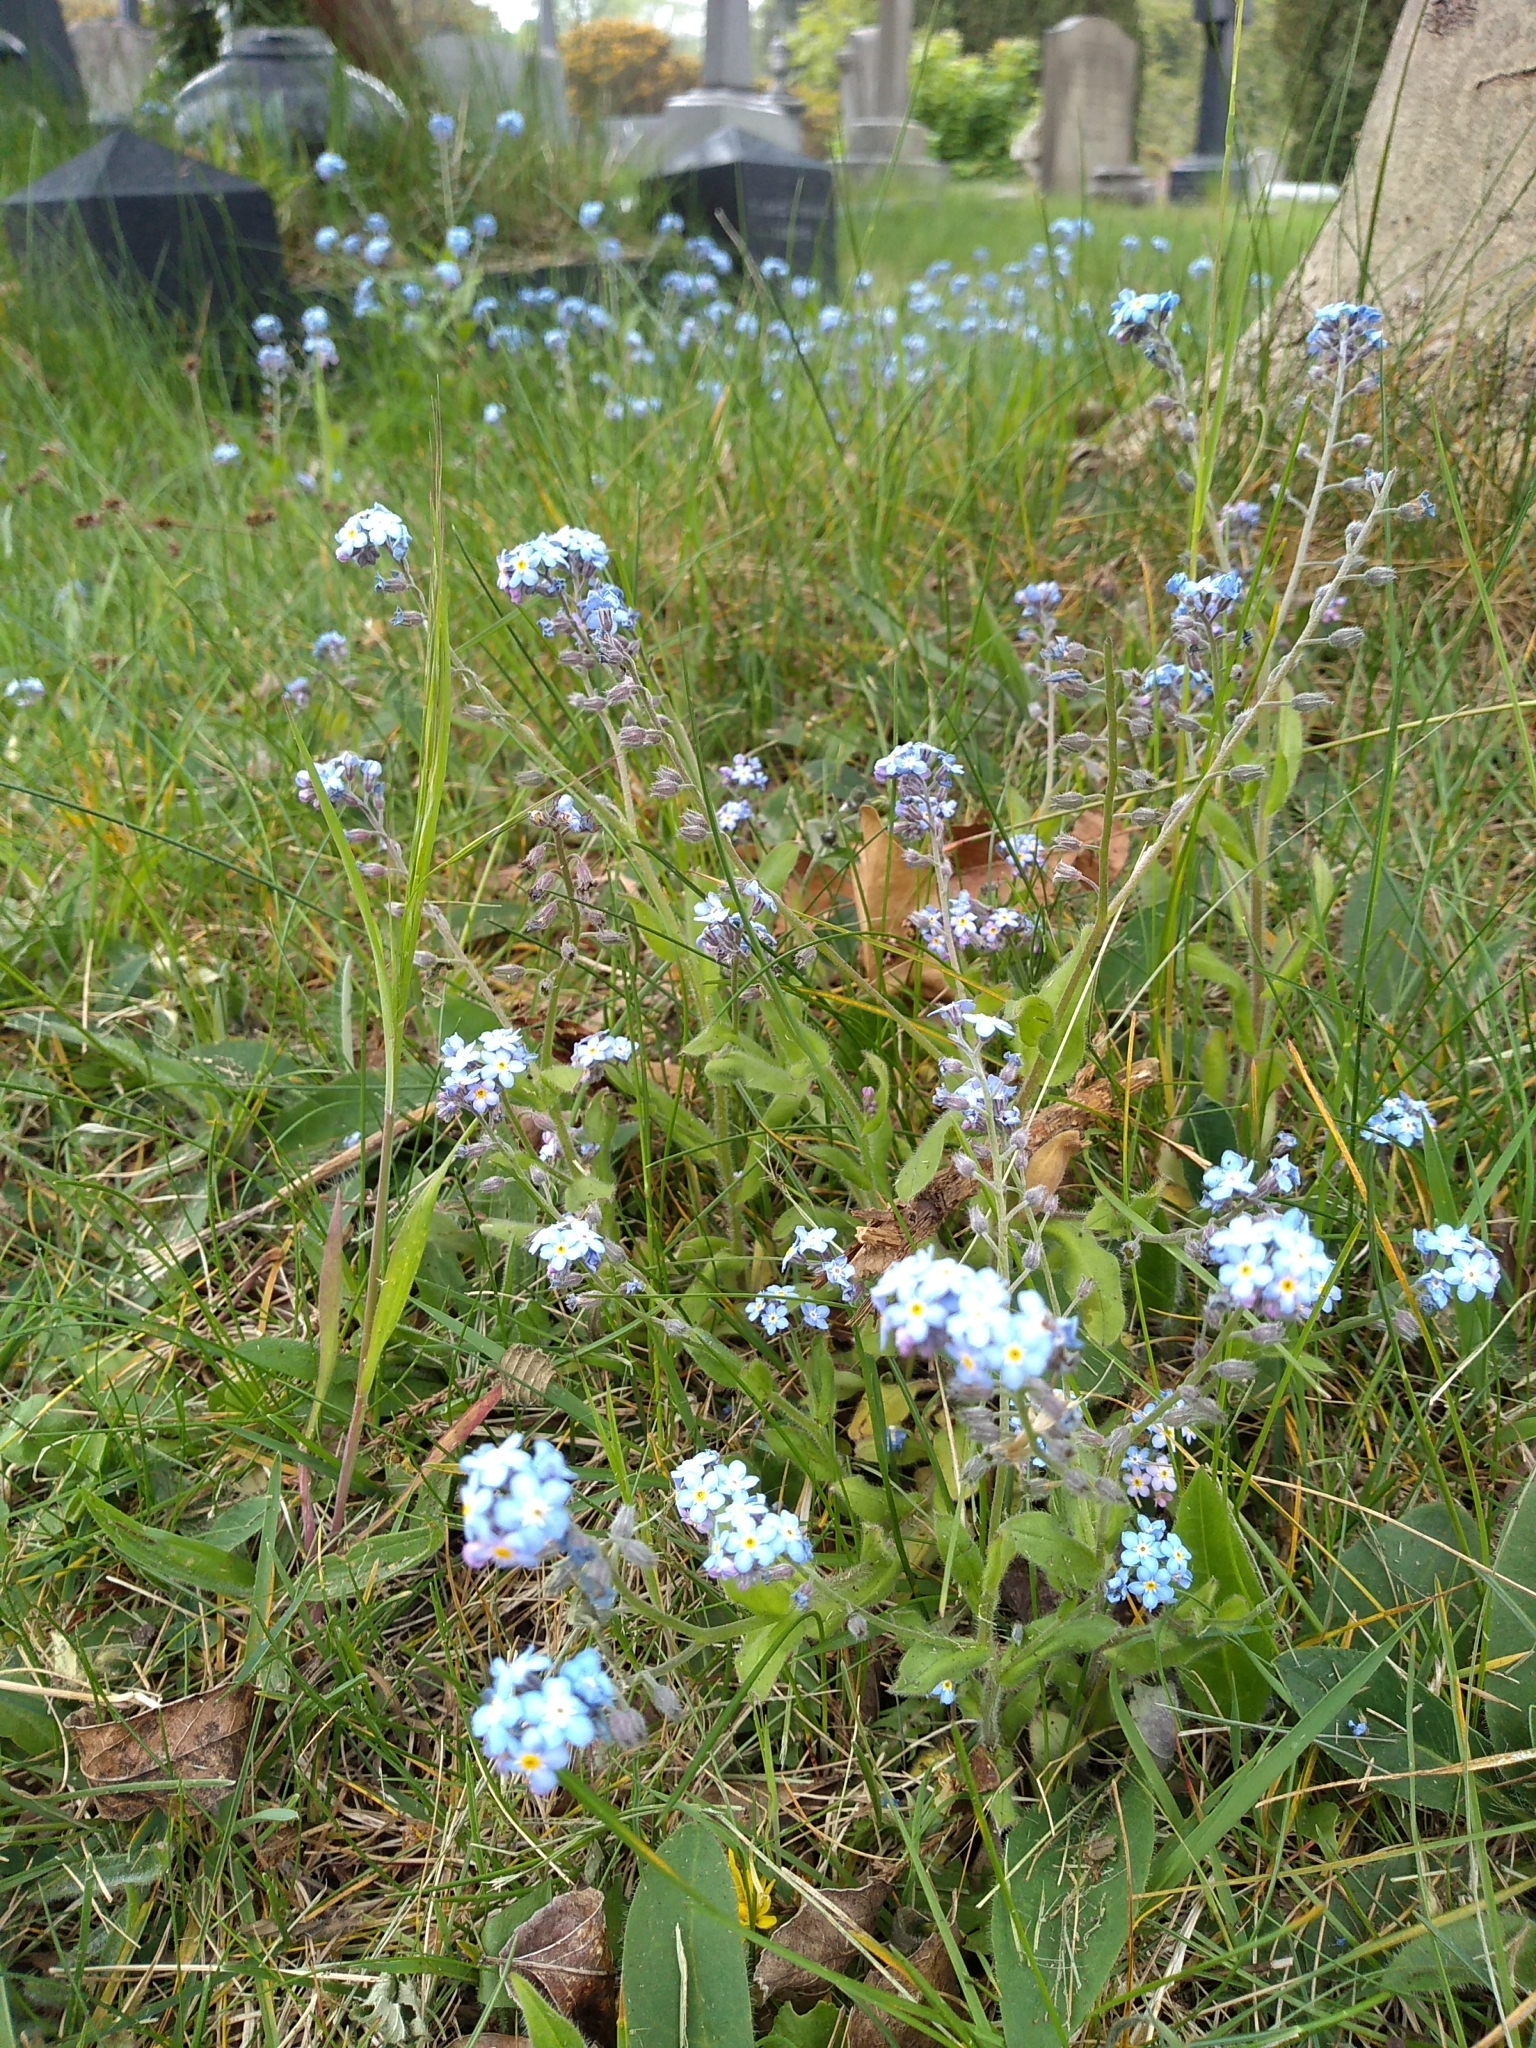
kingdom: Plantae
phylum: Tracheophyta
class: Magnoliopsida
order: Boraginales
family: Boraginaceae
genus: Myosotis
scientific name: Myosotis sylvatica
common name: Wood forget-me-not
